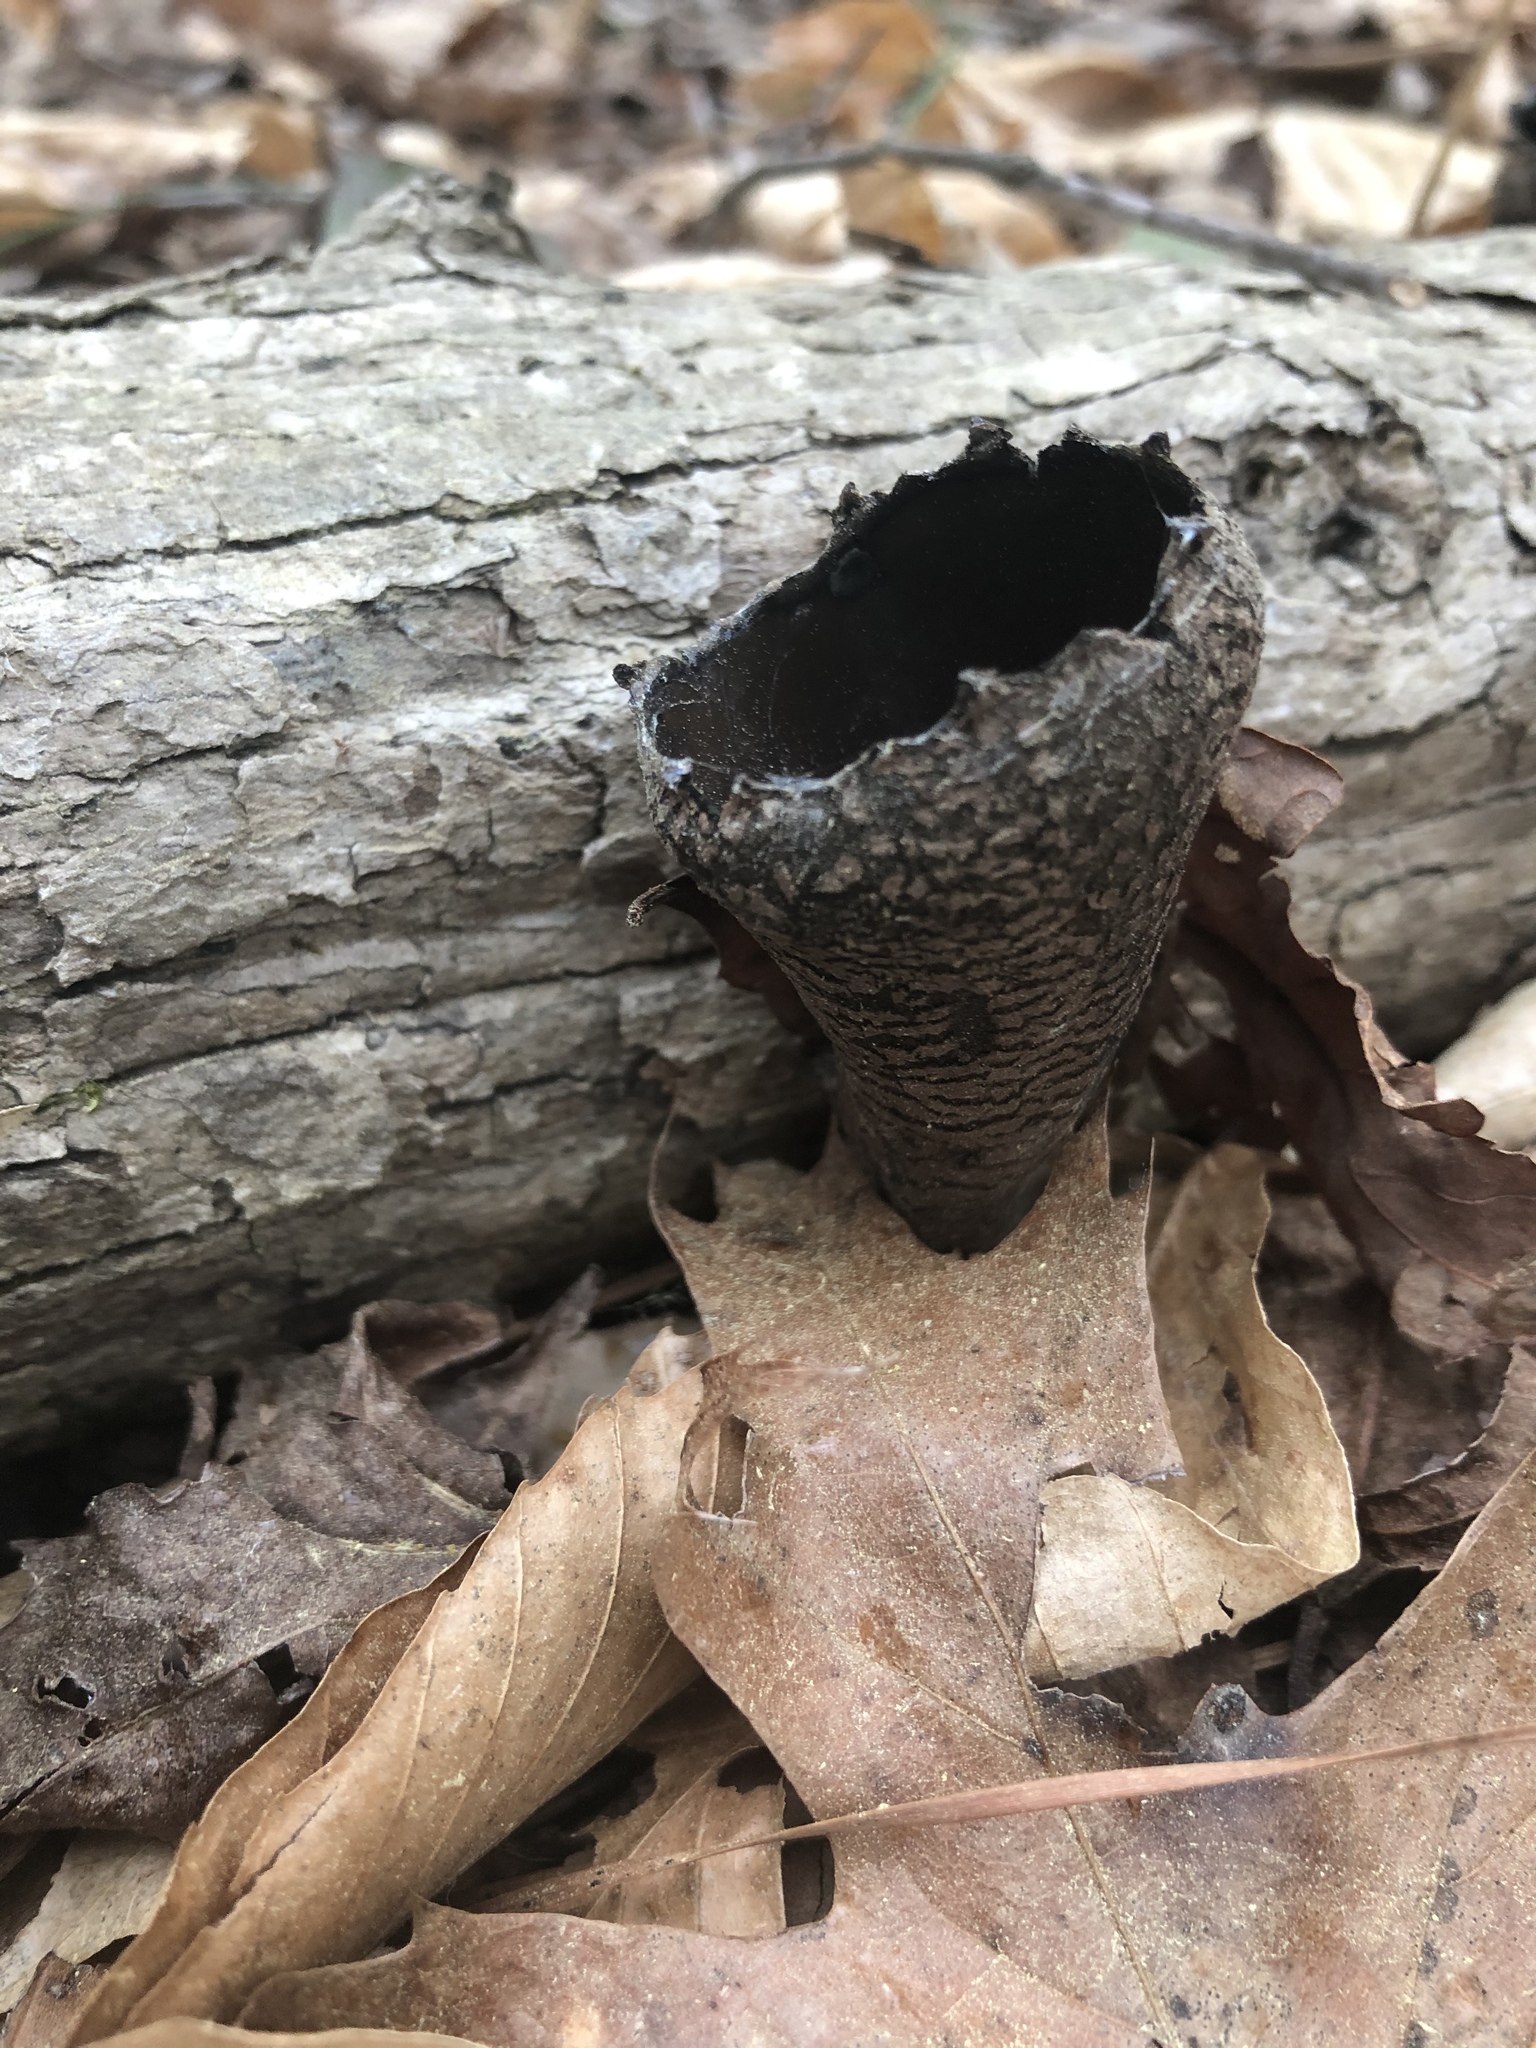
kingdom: Fungi
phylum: Ascomycota
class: Pezizomycetes
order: Pezizales
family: Sarcosomataceae
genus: Urnula
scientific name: Urnula craterium
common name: Devil's urn
